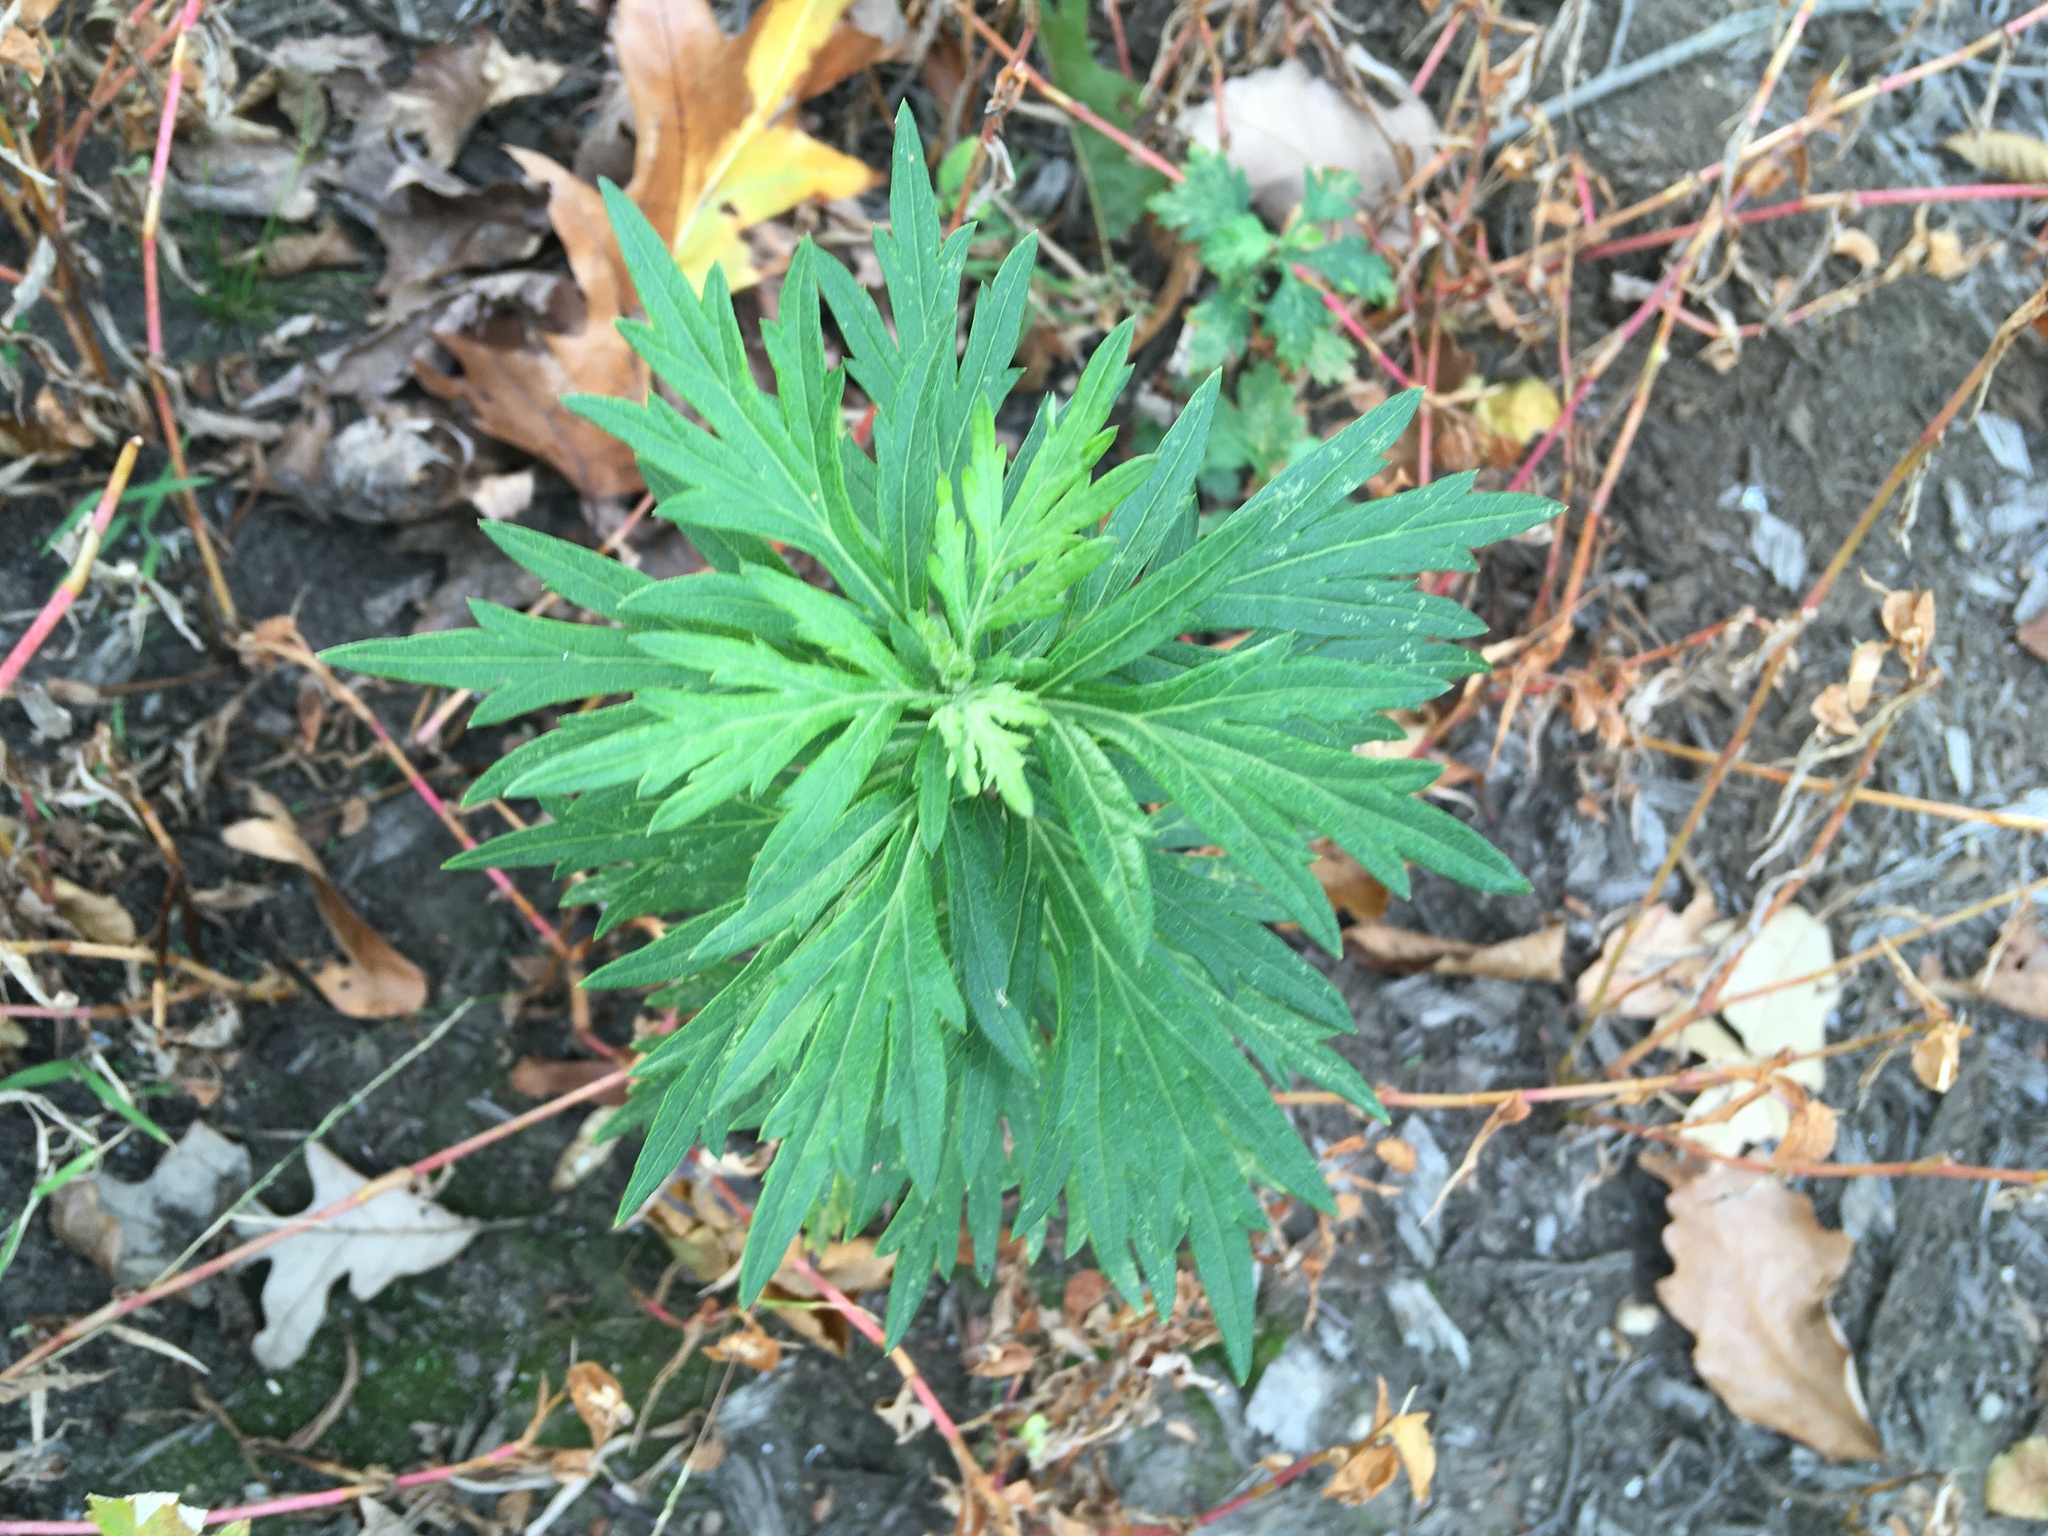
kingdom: Plantae
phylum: Tracheophyta
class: Magnoliopsida
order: Asterales
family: Asteraceae
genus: Artemisia
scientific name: Artemisia vulgaris
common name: Mugwort
